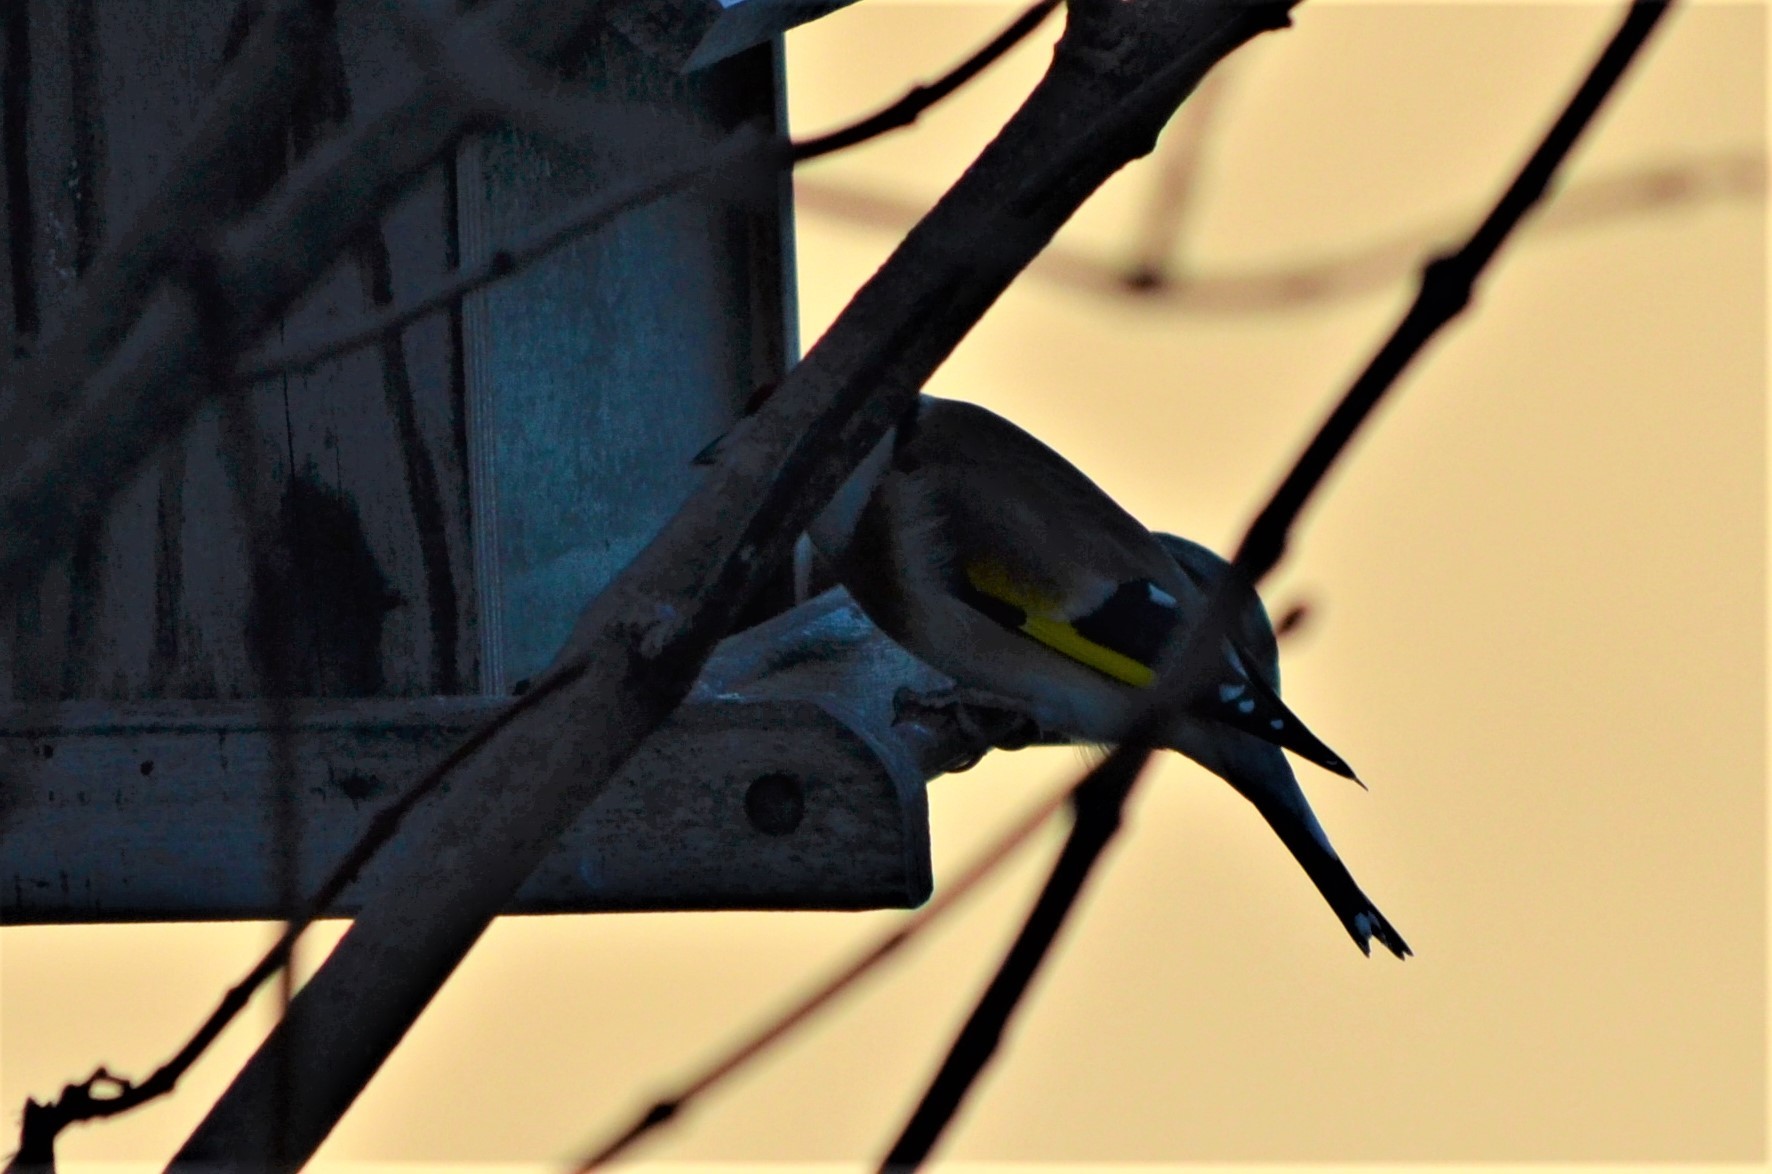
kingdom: Animalia
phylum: Chordata
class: Aves
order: Passeriformes
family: Fringillidae
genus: Carduelis
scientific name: Carduelis carduelis
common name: European goldfinch
